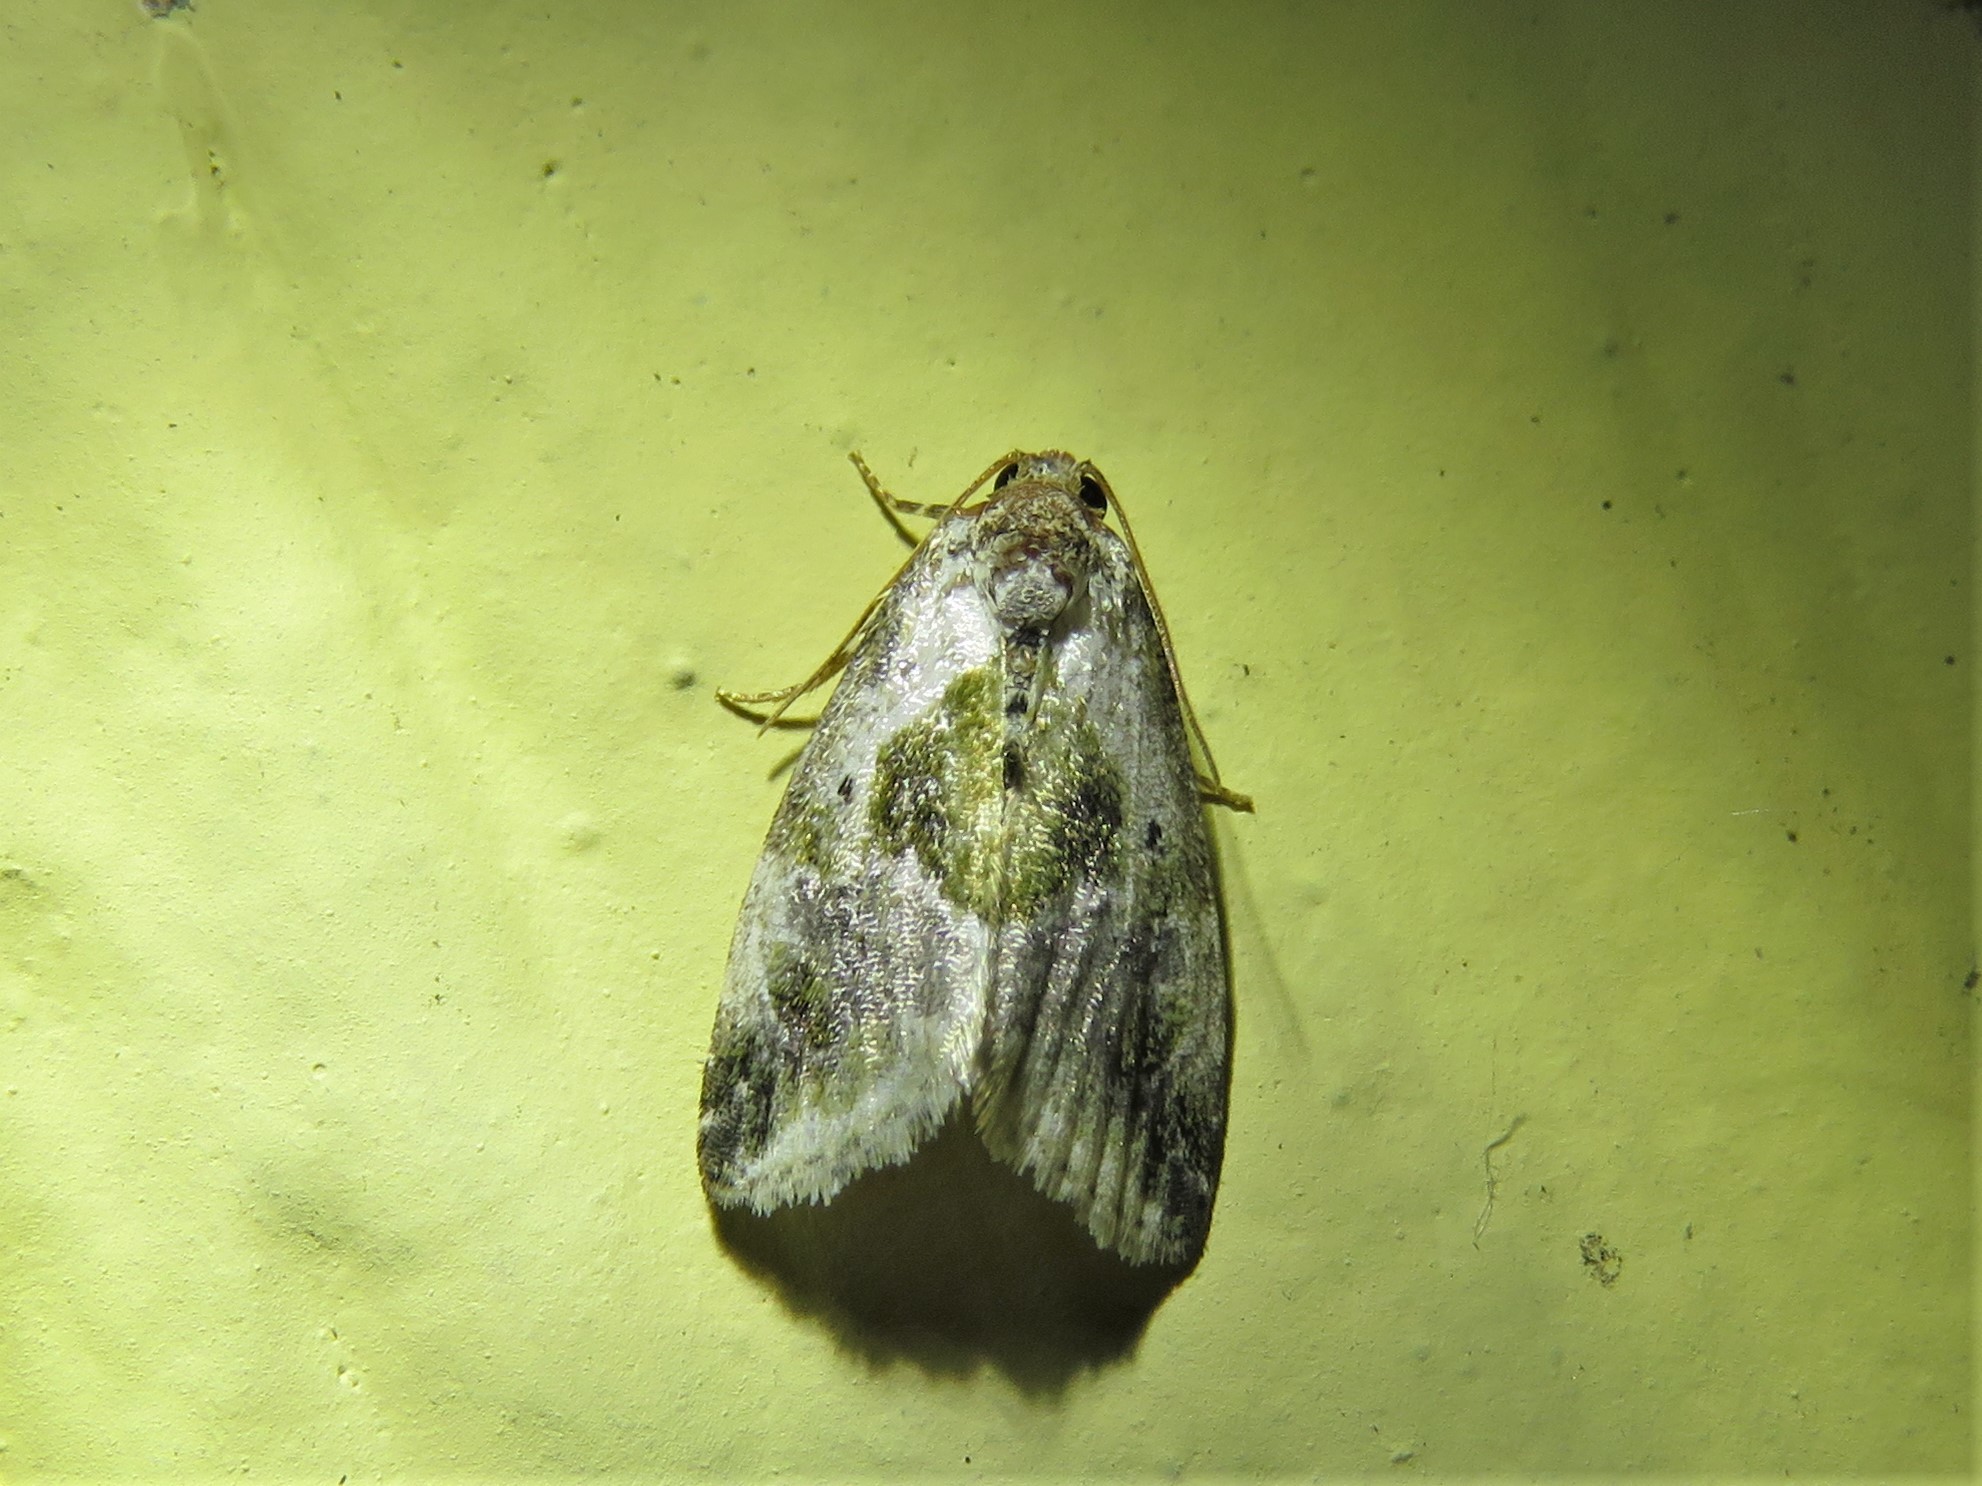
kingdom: Animalia
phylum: Arthropoda
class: Insecta
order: Lepidoptera
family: Noctuidae
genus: Maliattha
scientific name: Maliattha synochitis
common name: Black-dotted glyph
